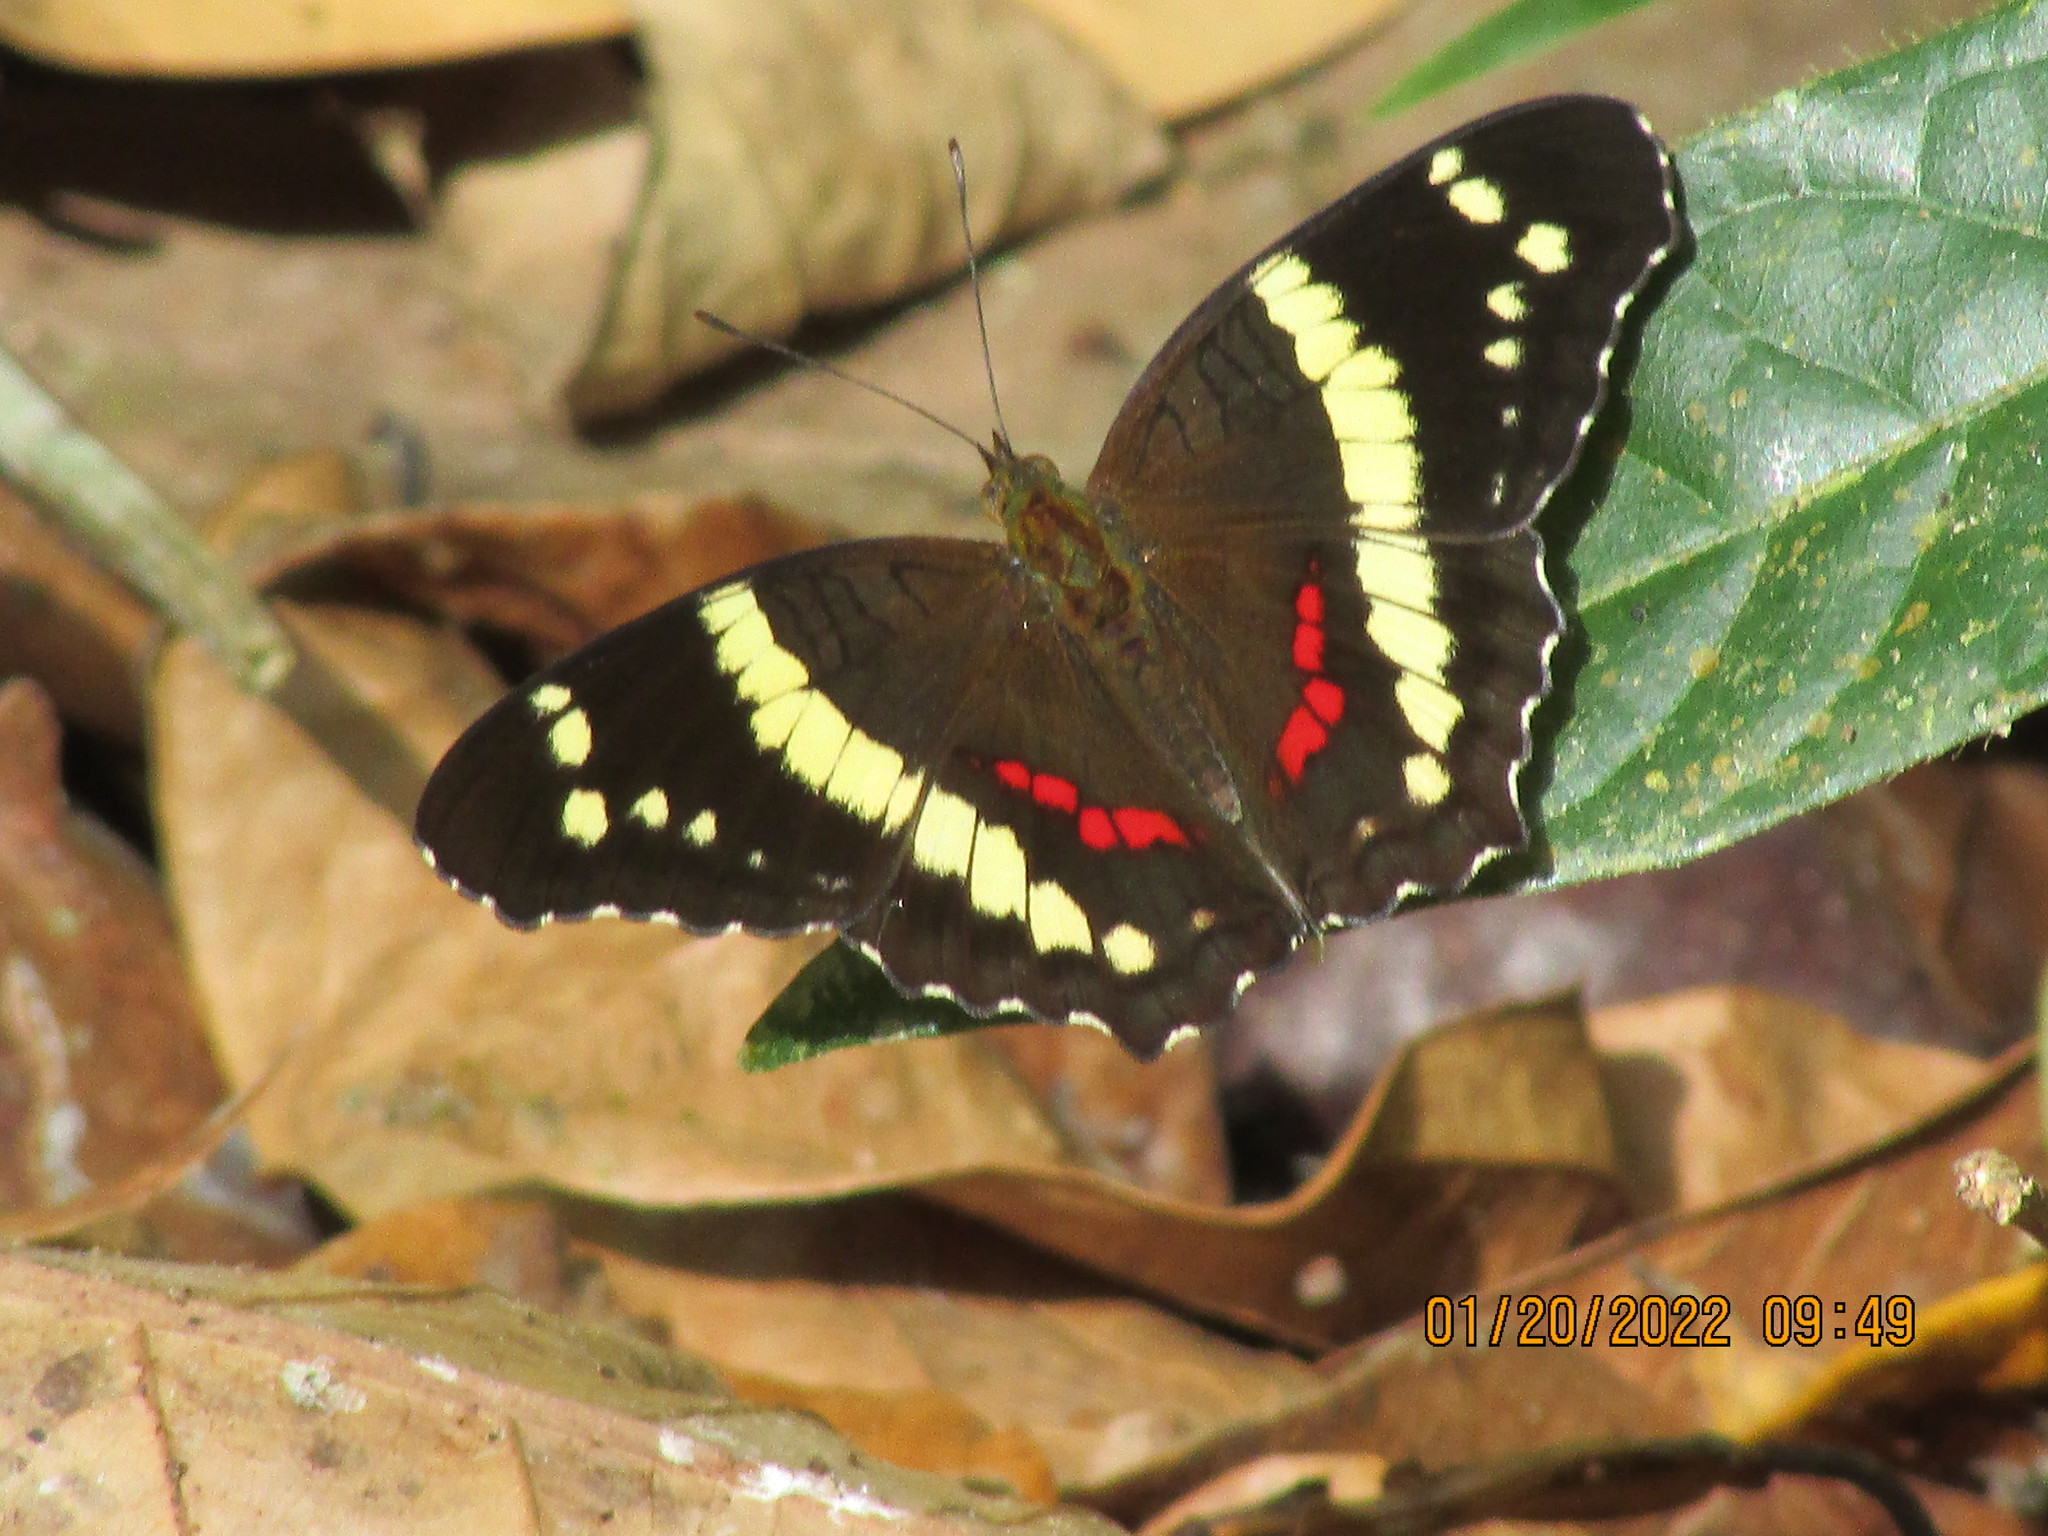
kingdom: Animalia
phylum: Arthropoda
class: Insecta
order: Lepidoptera
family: Nymphalidae
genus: Anartia
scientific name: Anartia fatima
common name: Banded peacock
